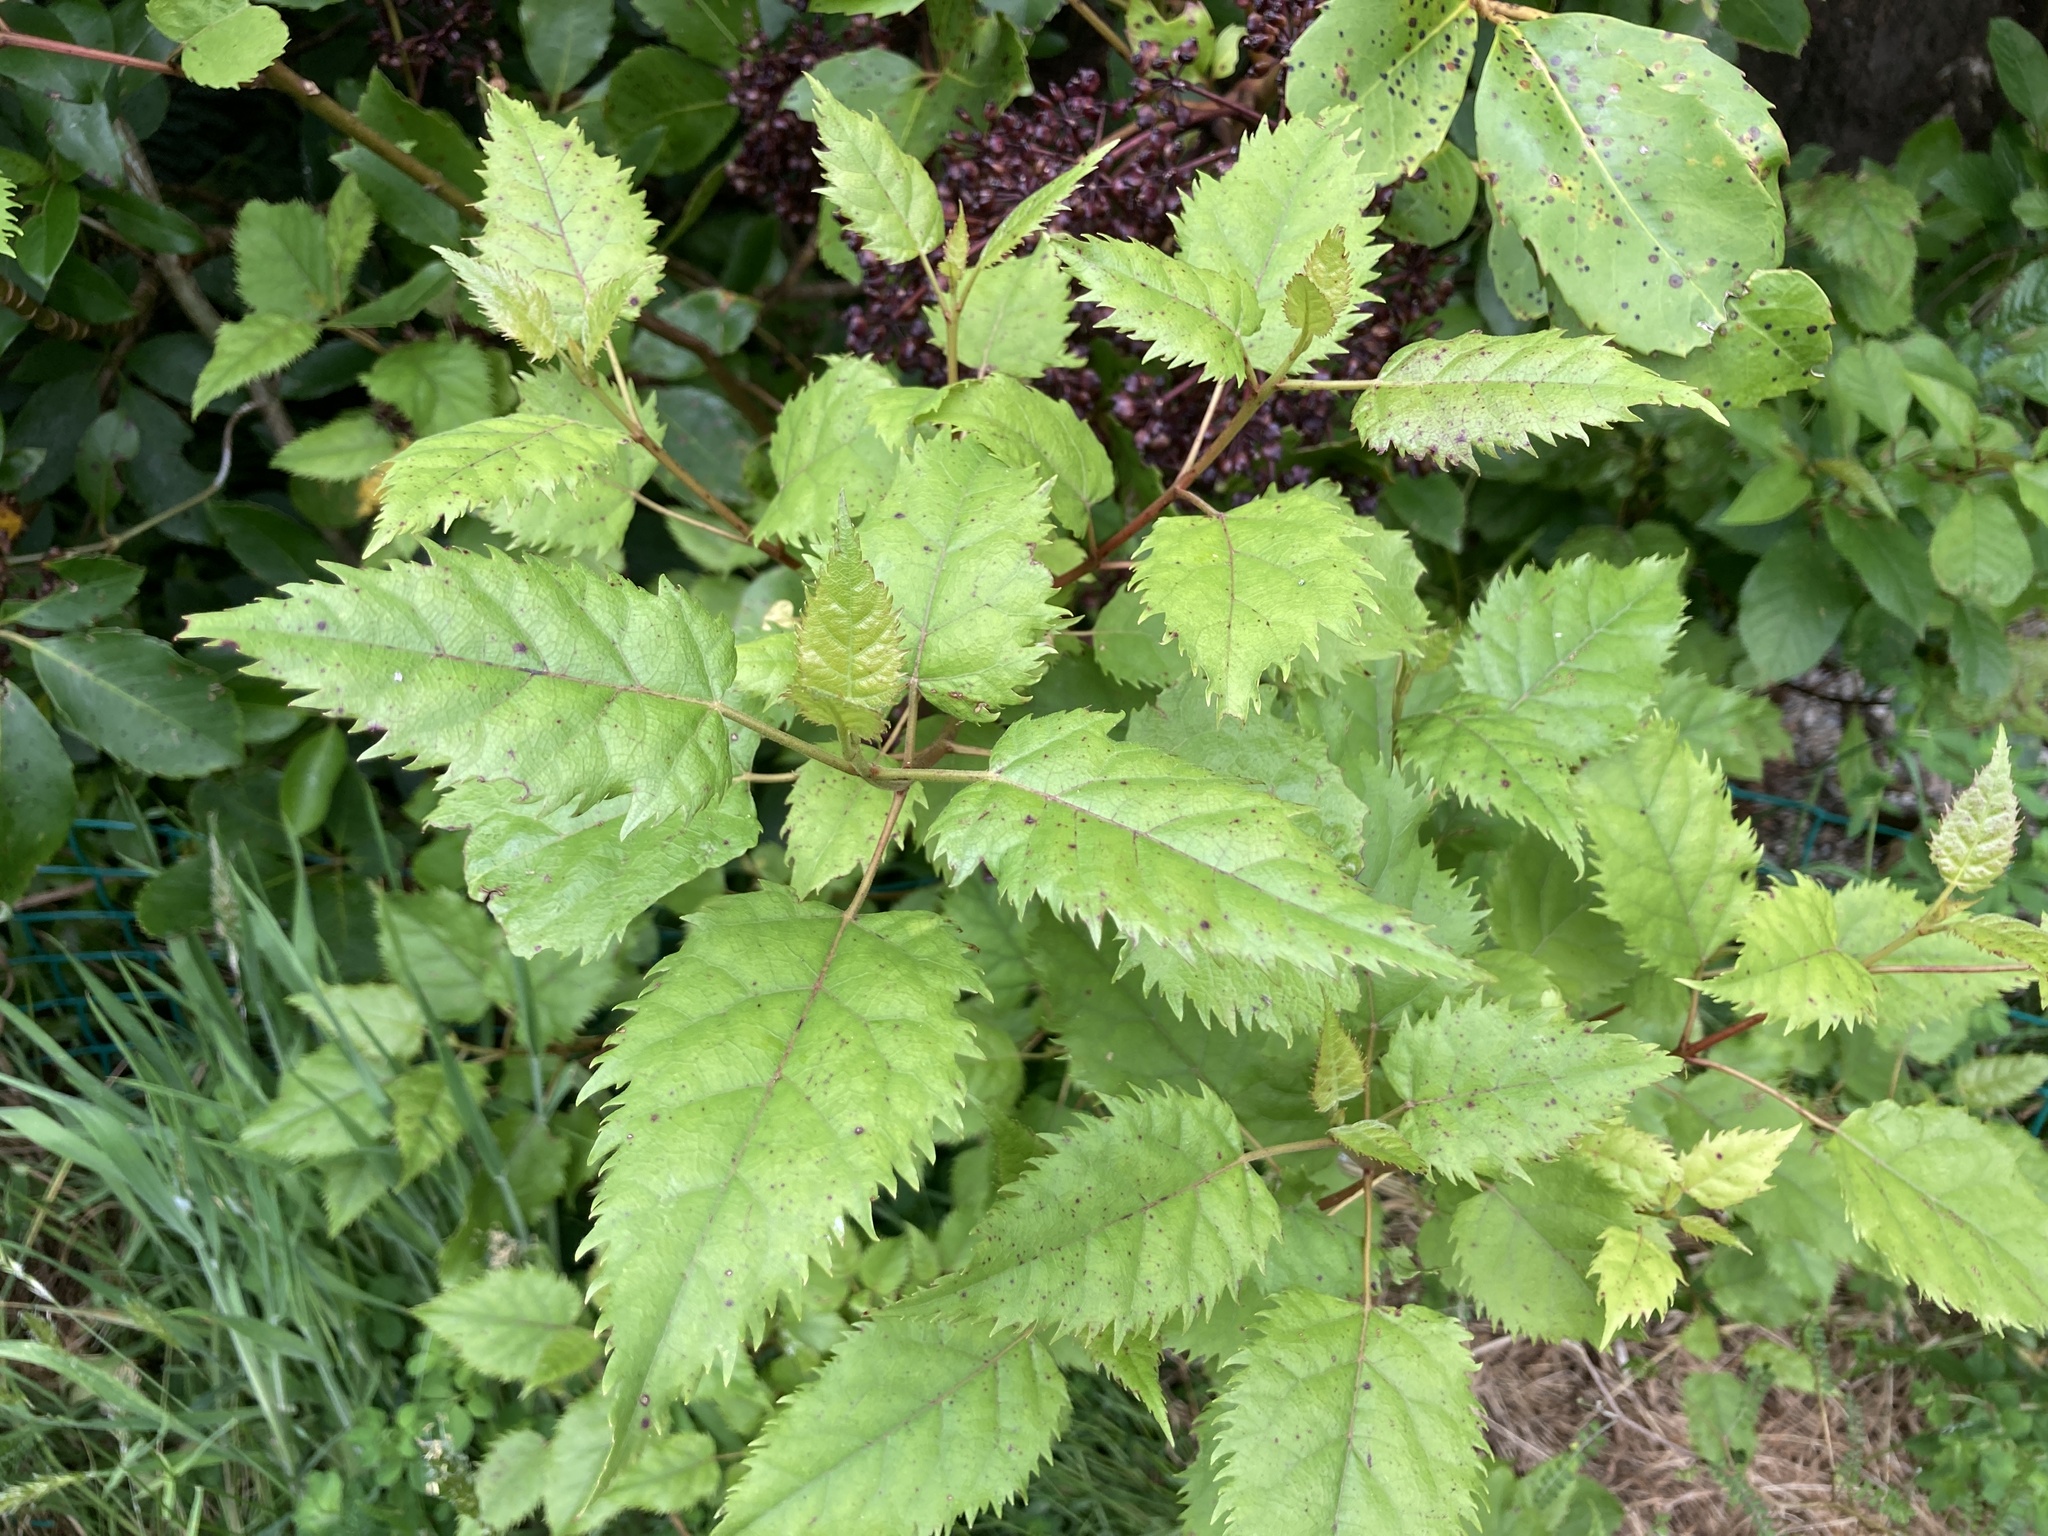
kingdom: Plantae
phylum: Tracheophyta
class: Magnoliopsida
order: Oxalidales
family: Elaeocarpaceae
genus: Aristotelia
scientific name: Aristotelia serrata
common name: New zealand wineberry
